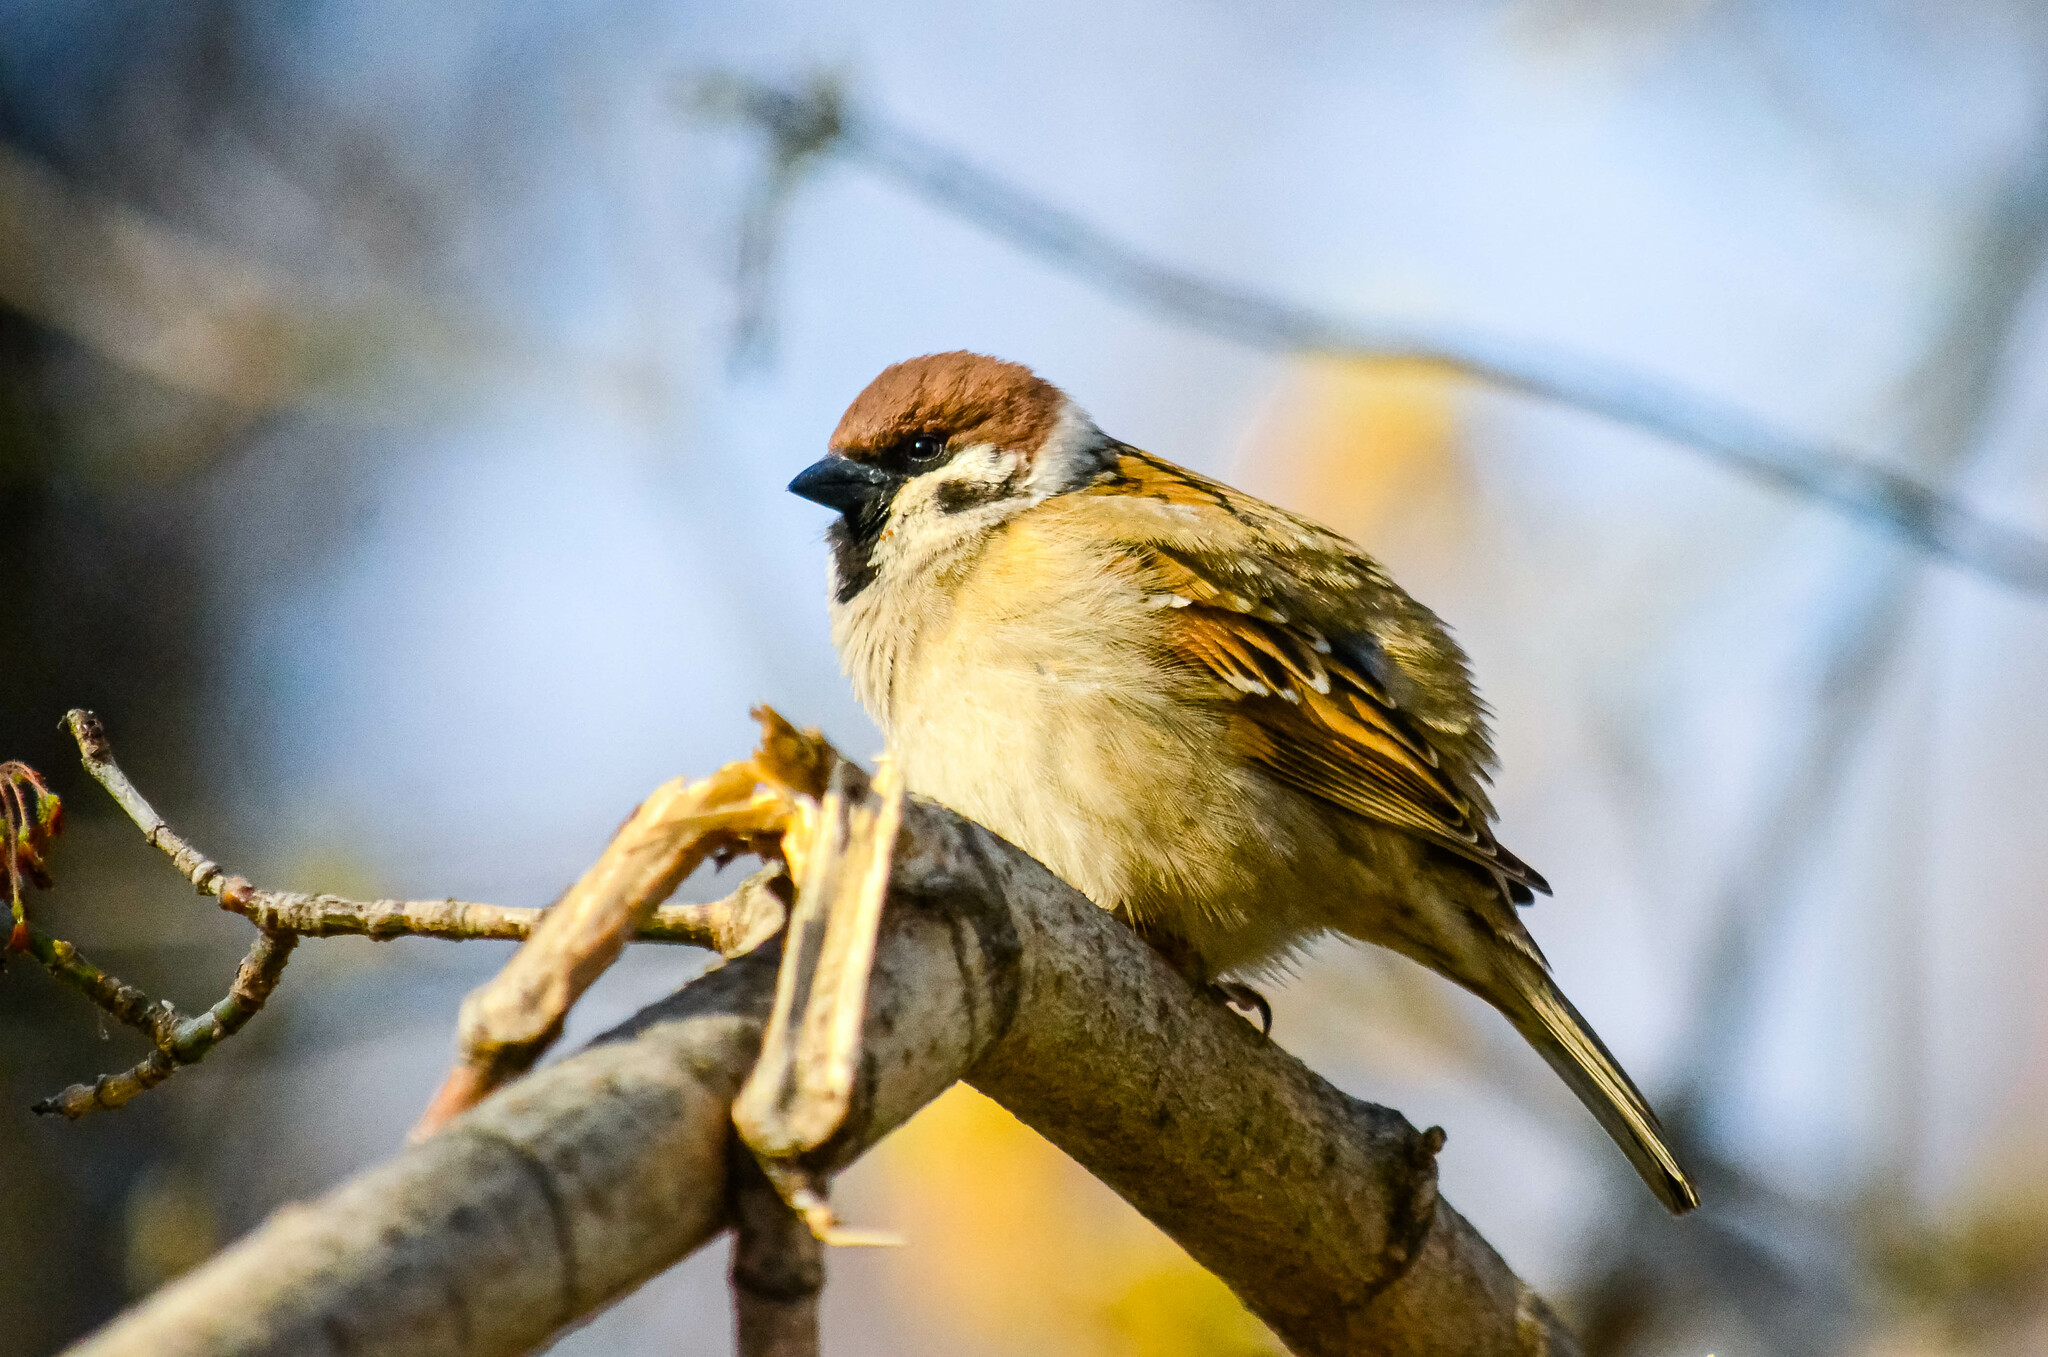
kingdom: Animalia
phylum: Chordata
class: Aves
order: Passeriformes
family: Passeridae
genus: Passer
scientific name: Passer montanus
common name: Eurasian tree sparrow
